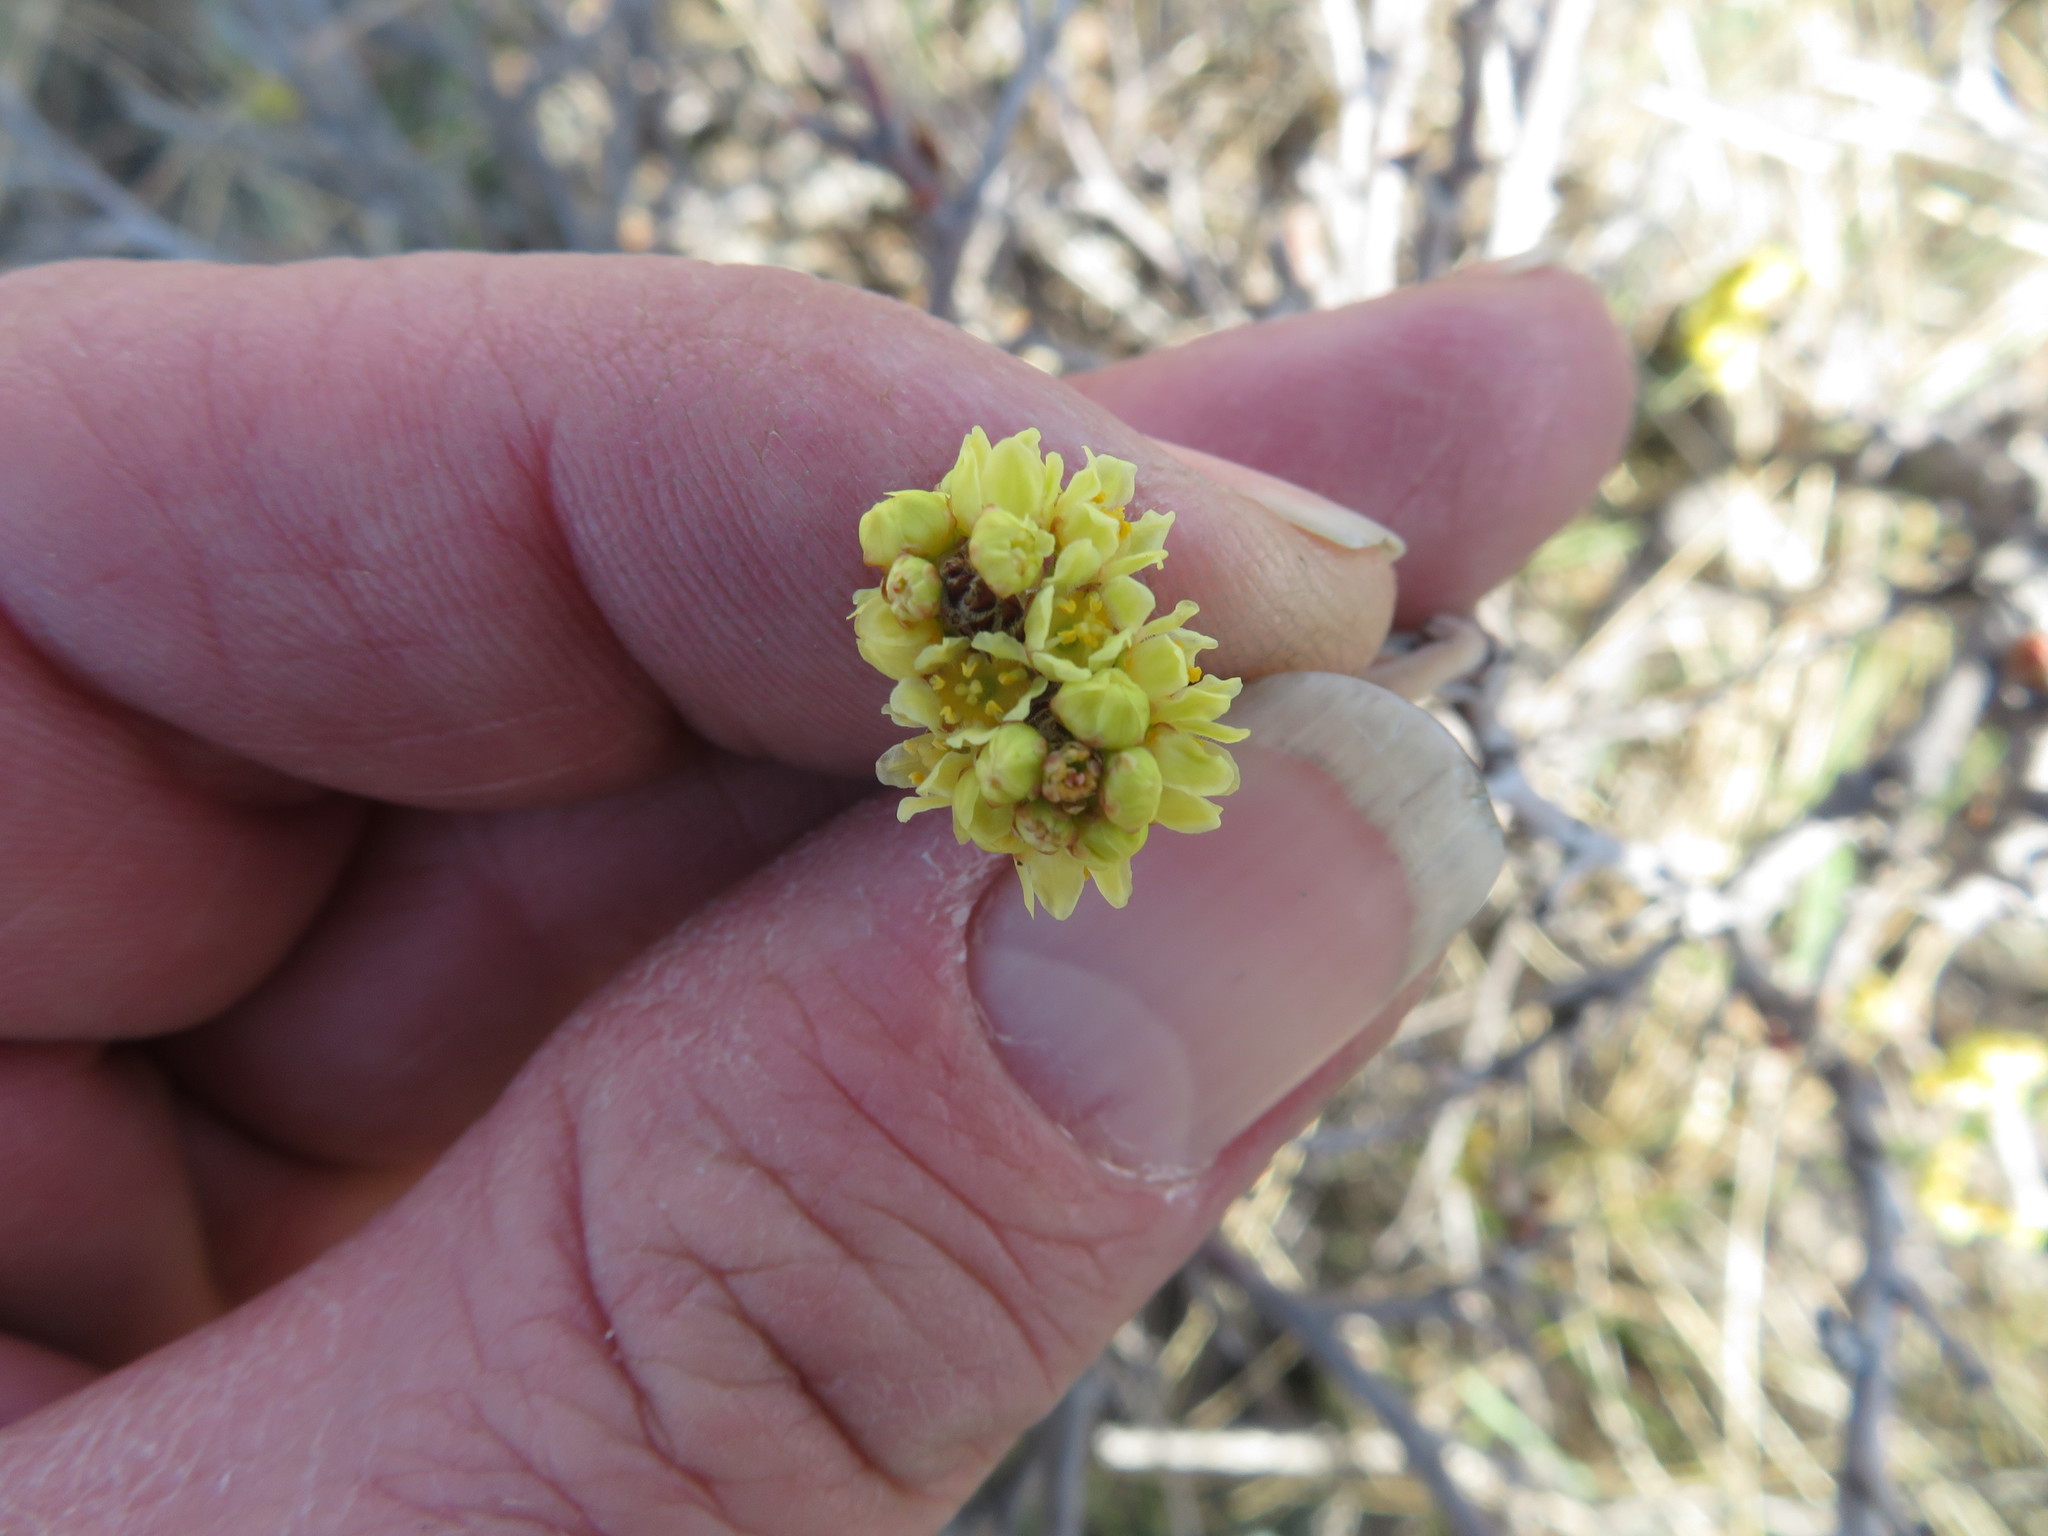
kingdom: Plantae
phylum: Tracheophyta
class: Magnoliopsida
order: Sapindales
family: Anacardiaceae
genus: Rhus
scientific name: Rhus aromatica
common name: Aromatic sumac
